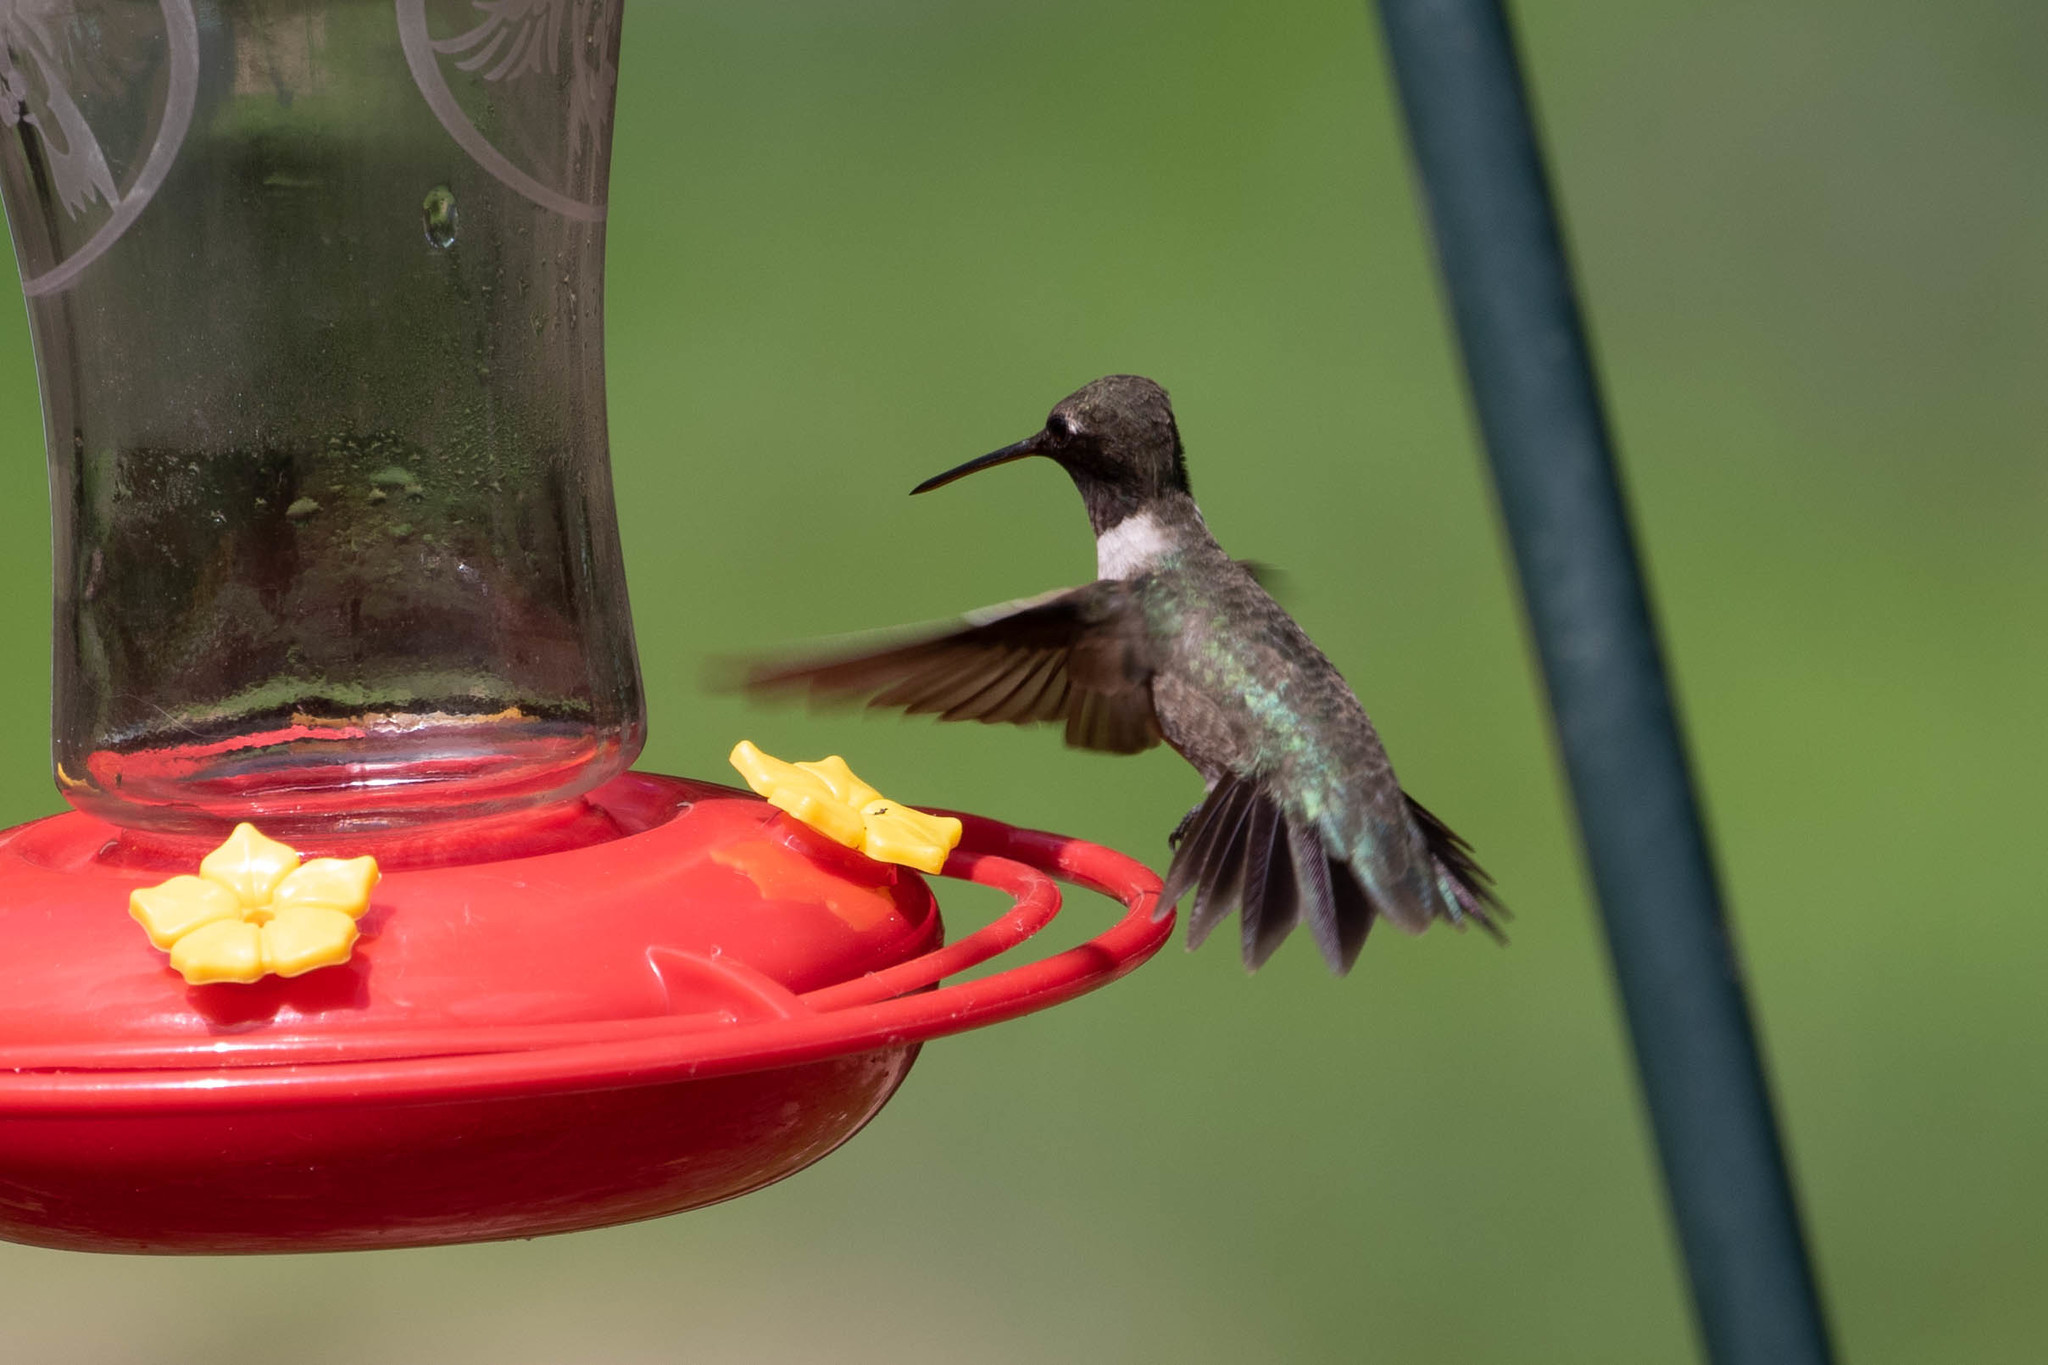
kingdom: Animalia
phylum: Chordata
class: Aves
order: Apodiformes
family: Trochilidae
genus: Archilochus
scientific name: Archilochus alexandri
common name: Black-chinned hummingbird
